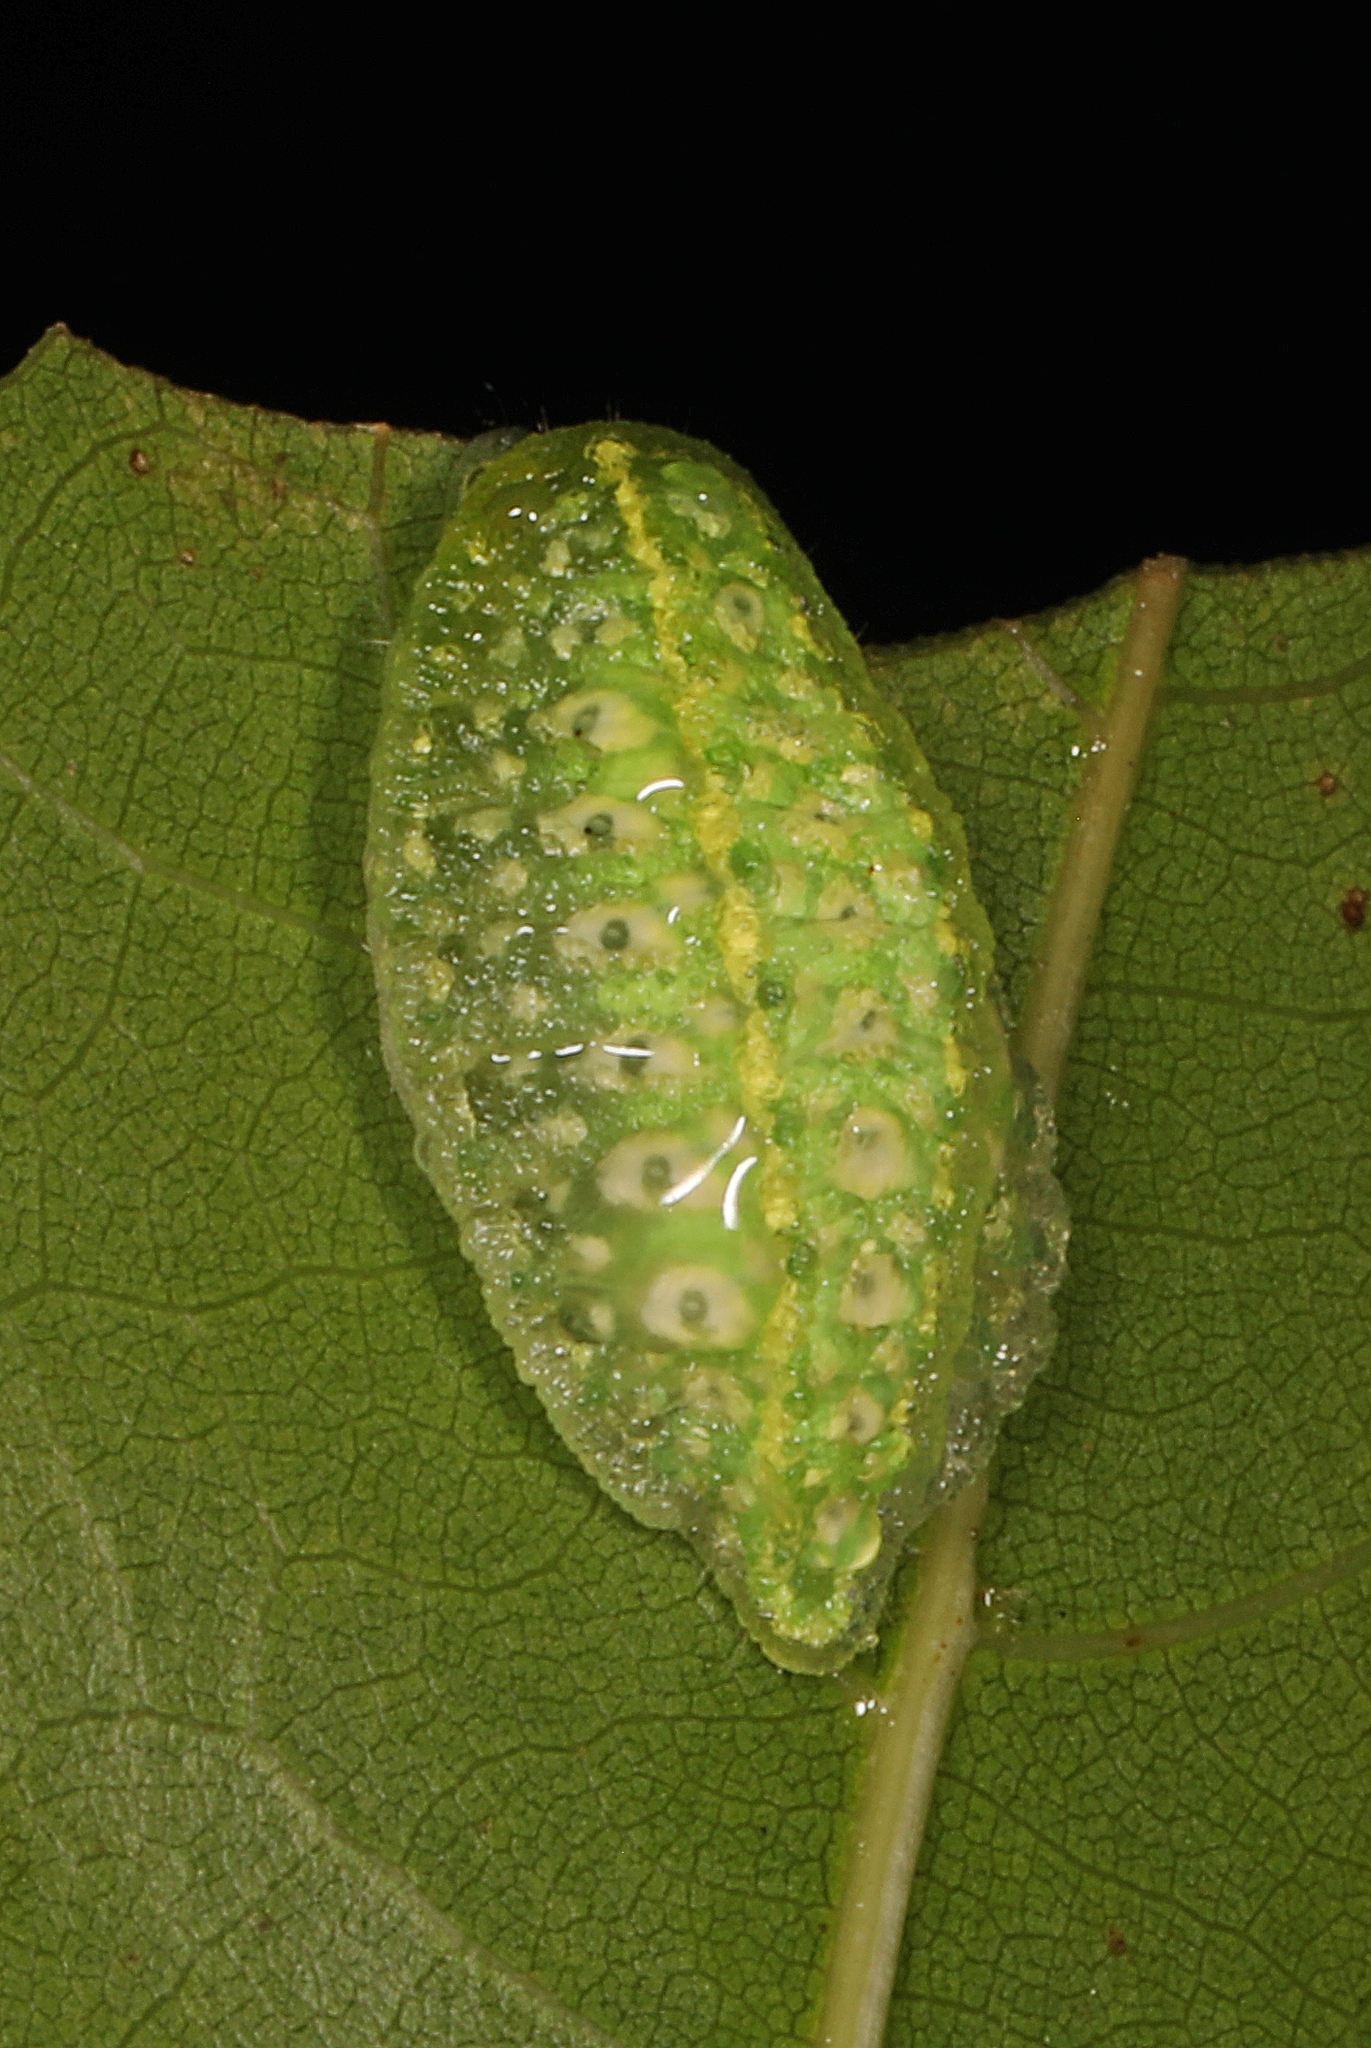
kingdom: Animalia
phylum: Arthropoda
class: Insecta
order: Lepidoptera
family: Limacodidae
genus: Lithacodes
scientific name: Lithacodes fasciola
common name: Yellow-shouldered slug moth
